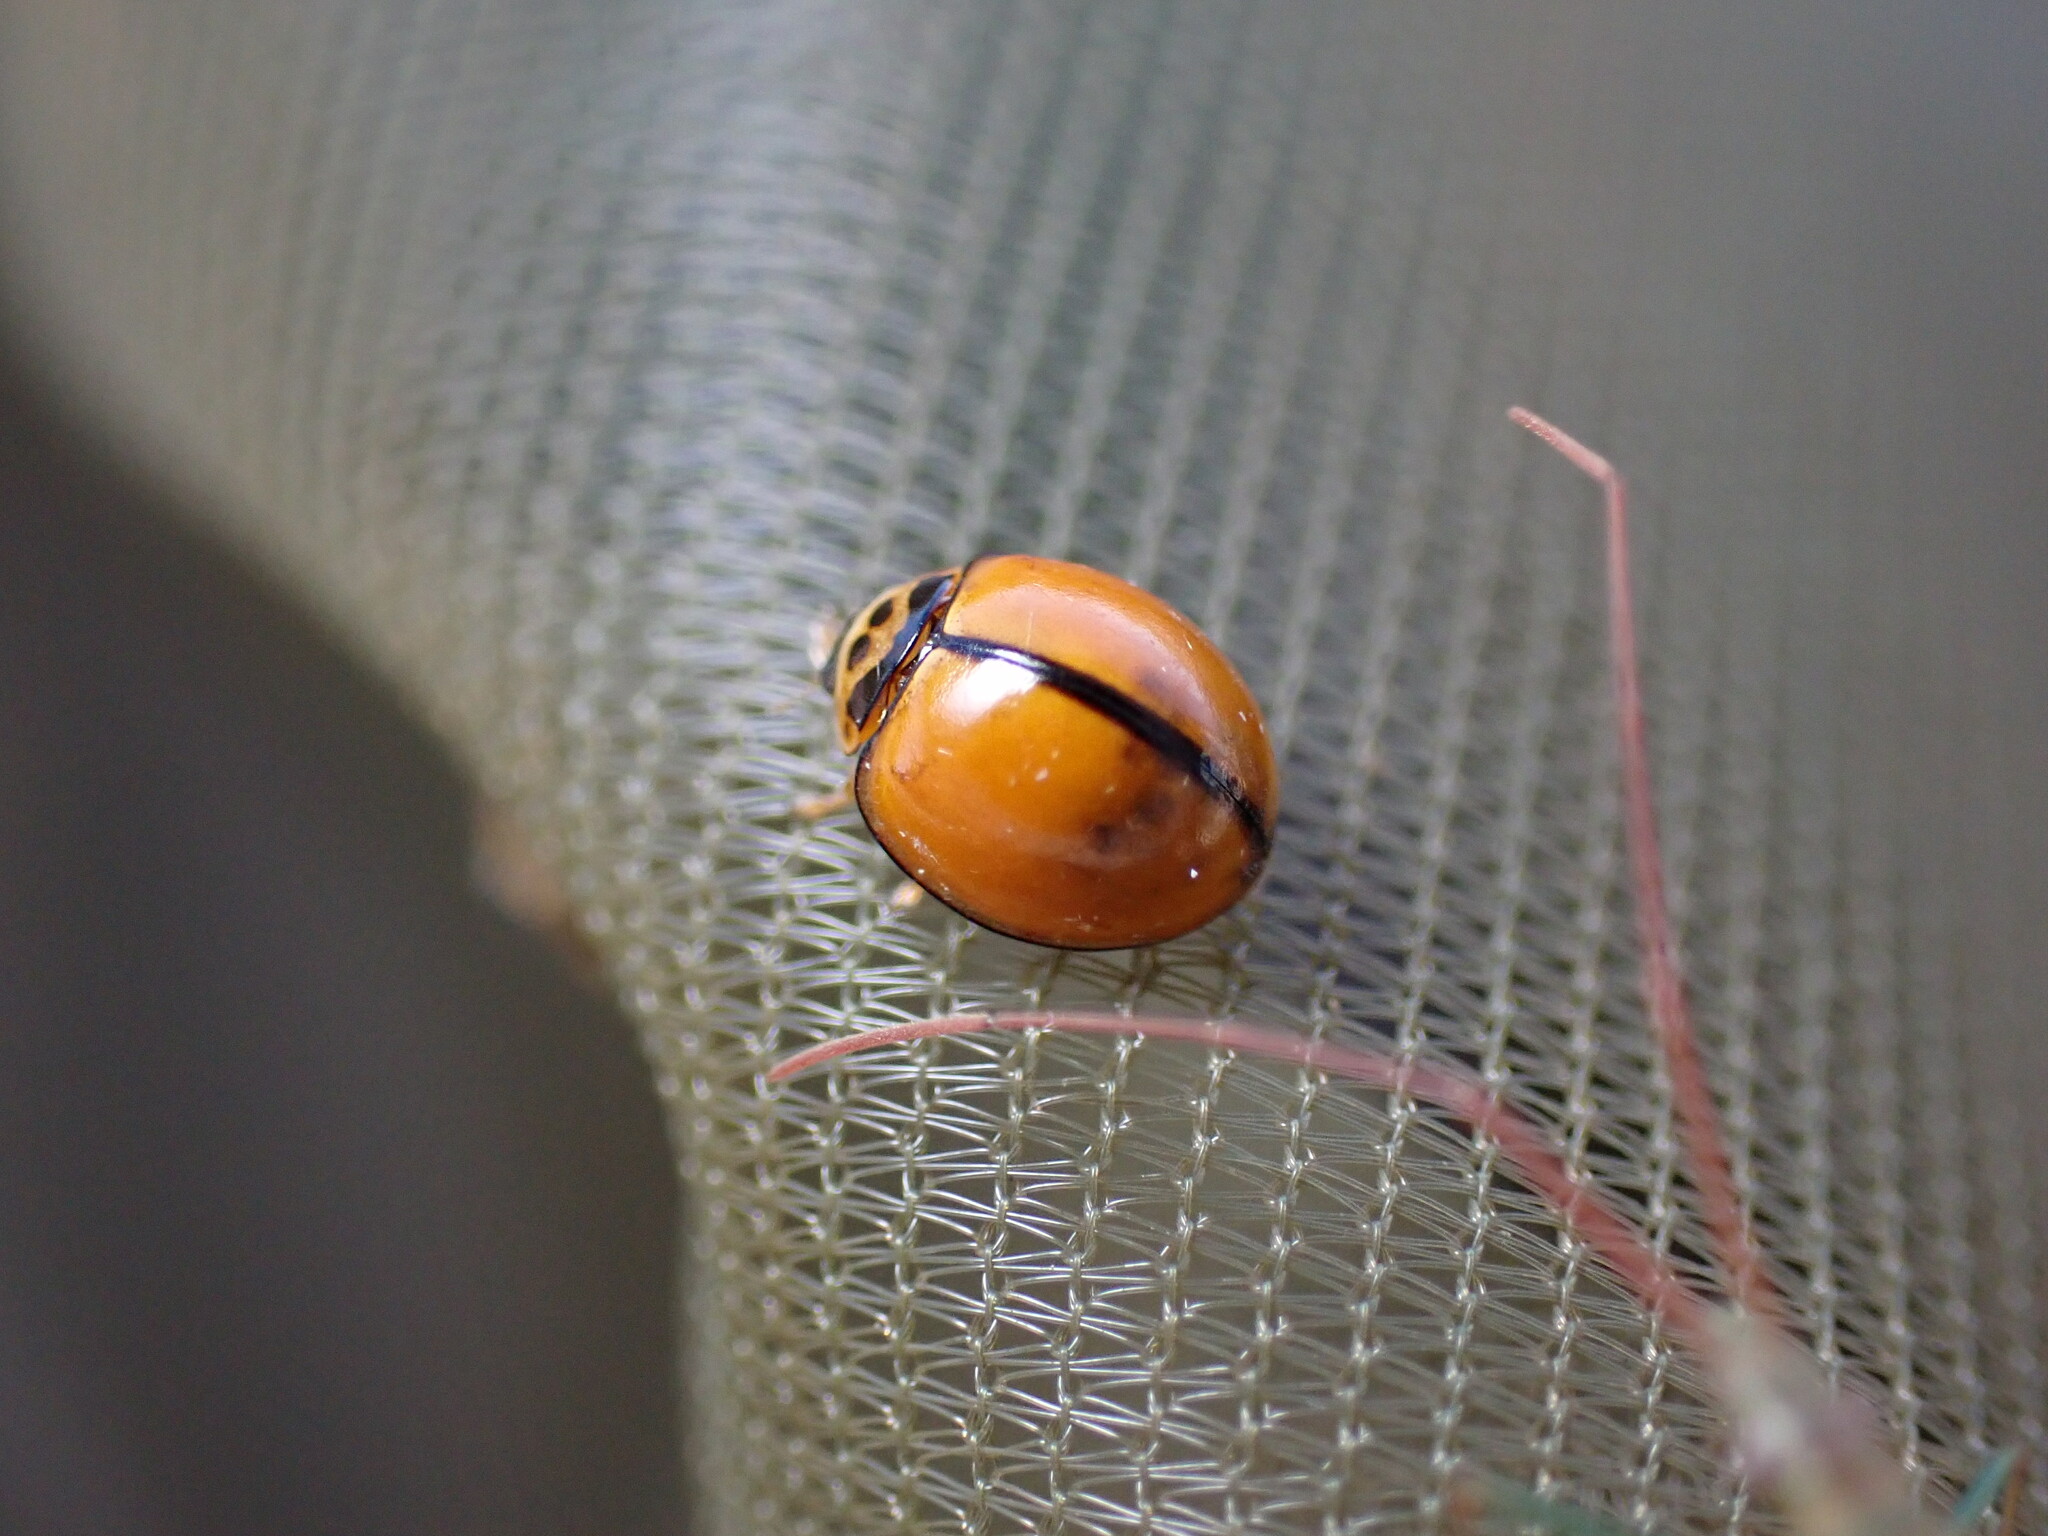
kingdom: Animalia
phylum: Arthropoda
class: Insecta
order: Coleoptera
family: Coccinellidae
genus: Micraspis
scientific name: Micraspis discolor
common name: Lady beetle
